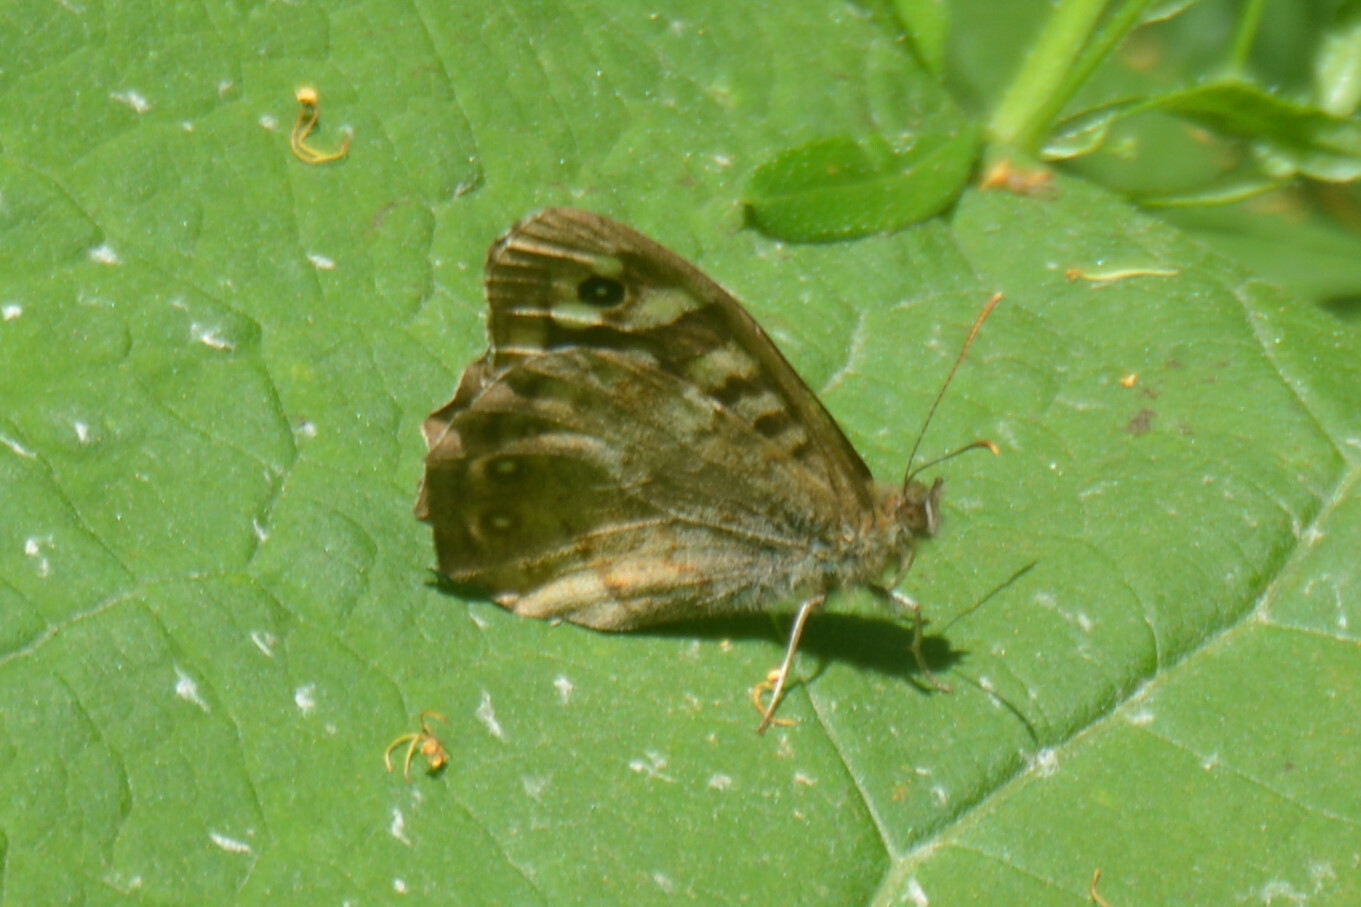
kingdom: Animalia
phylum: Arthropoda
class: Insecta
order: Lepidoptera
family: Nymphalidae
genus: Pararge
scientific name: Pararge aegeria
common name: Speckled wood
